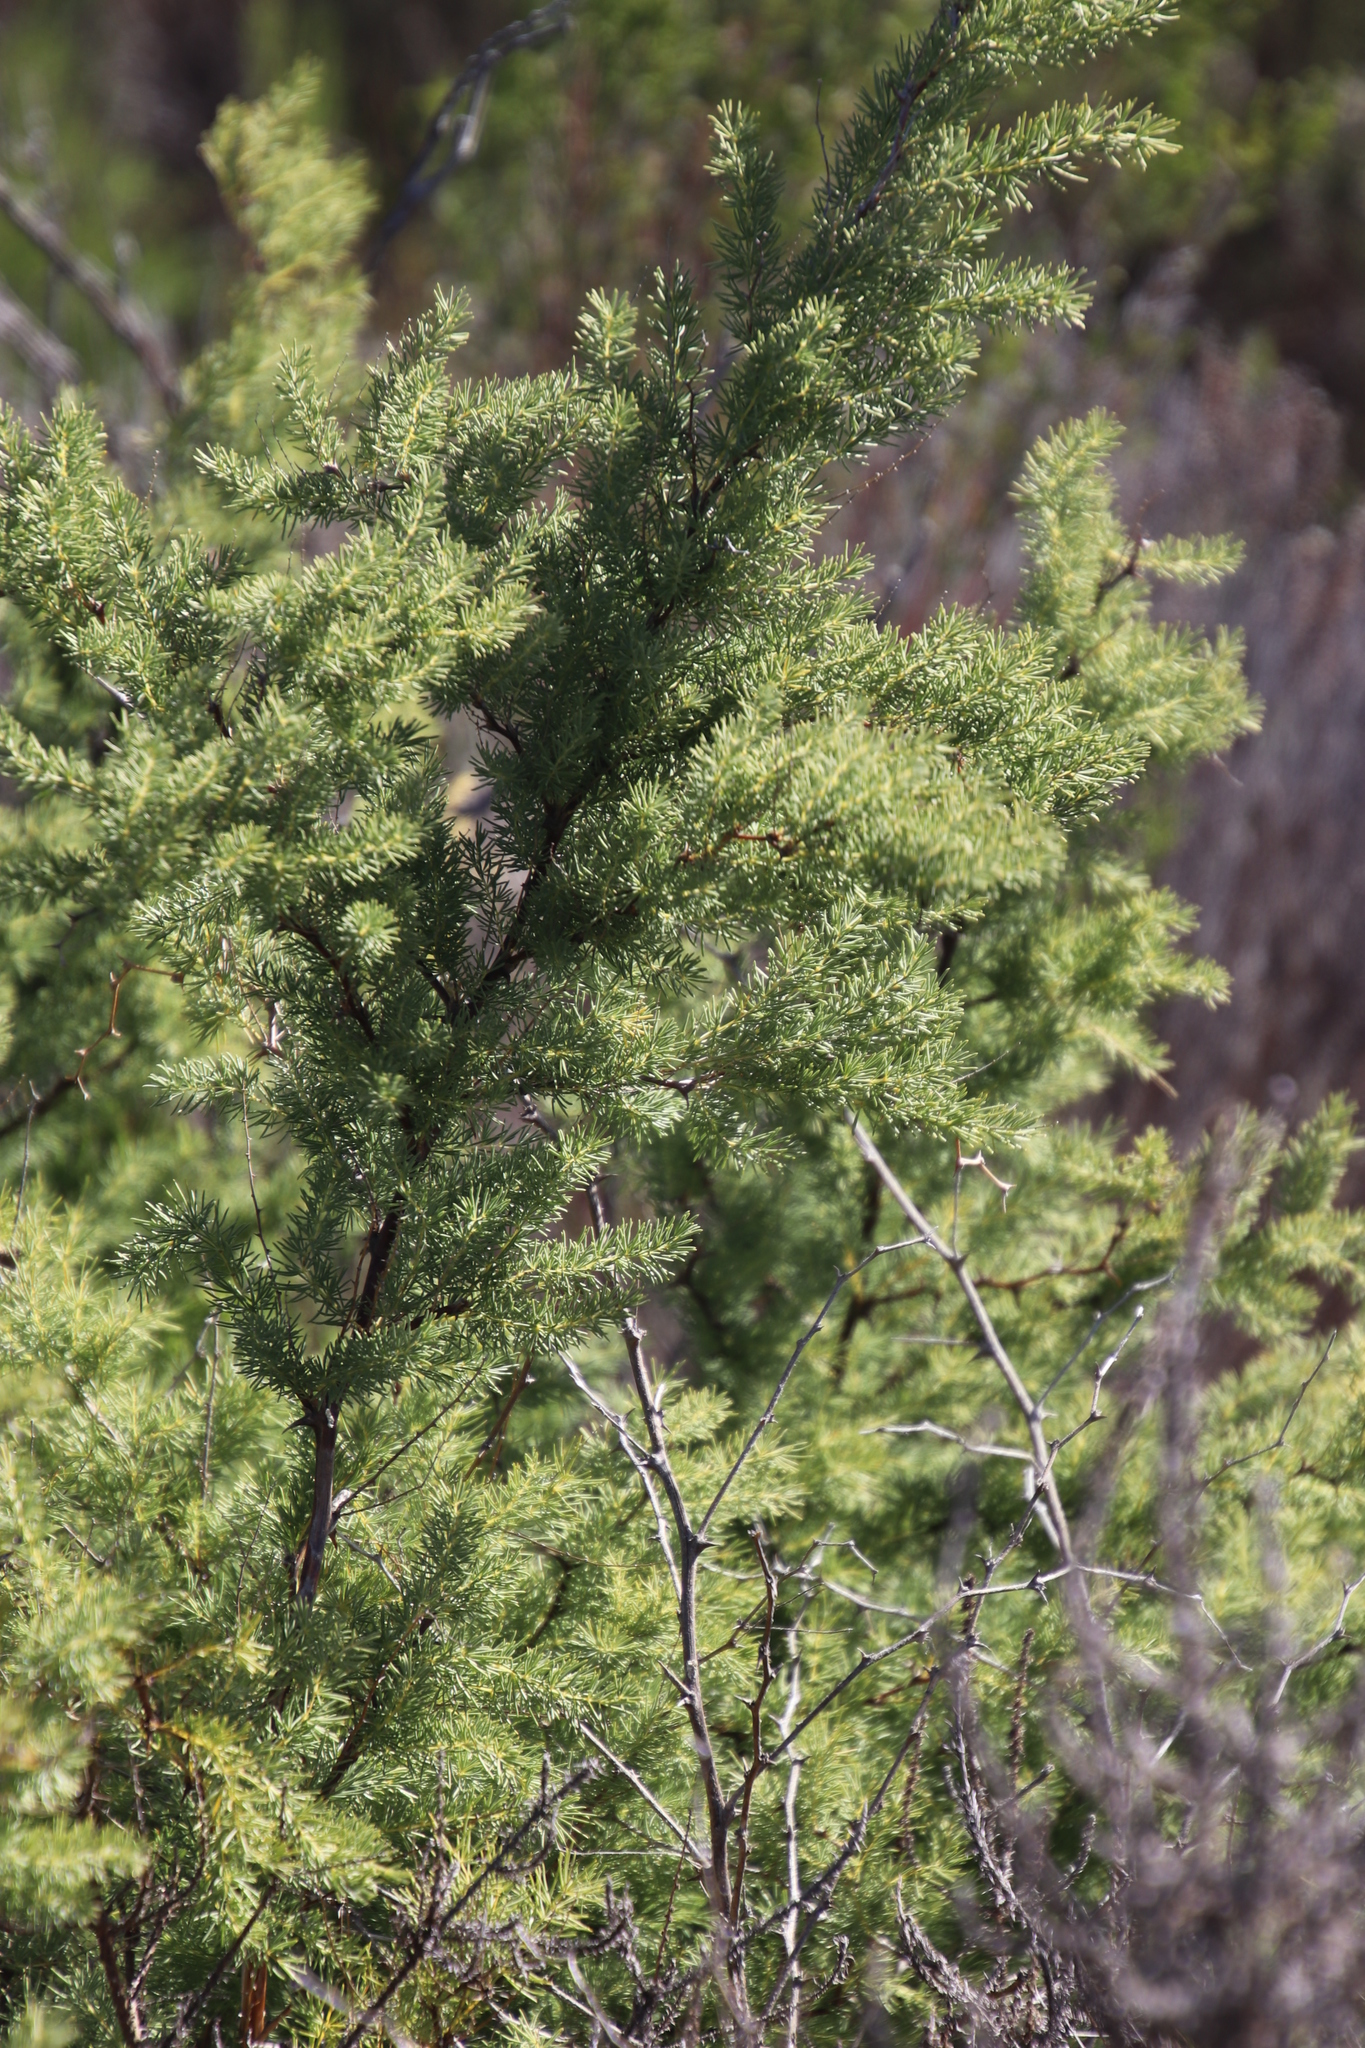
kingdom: Plantae
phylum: Tracheophyta
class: Liliopsida
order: Asparagales
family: Asparagaceae
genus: Asparagus
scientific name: Asparagus rubicundus
